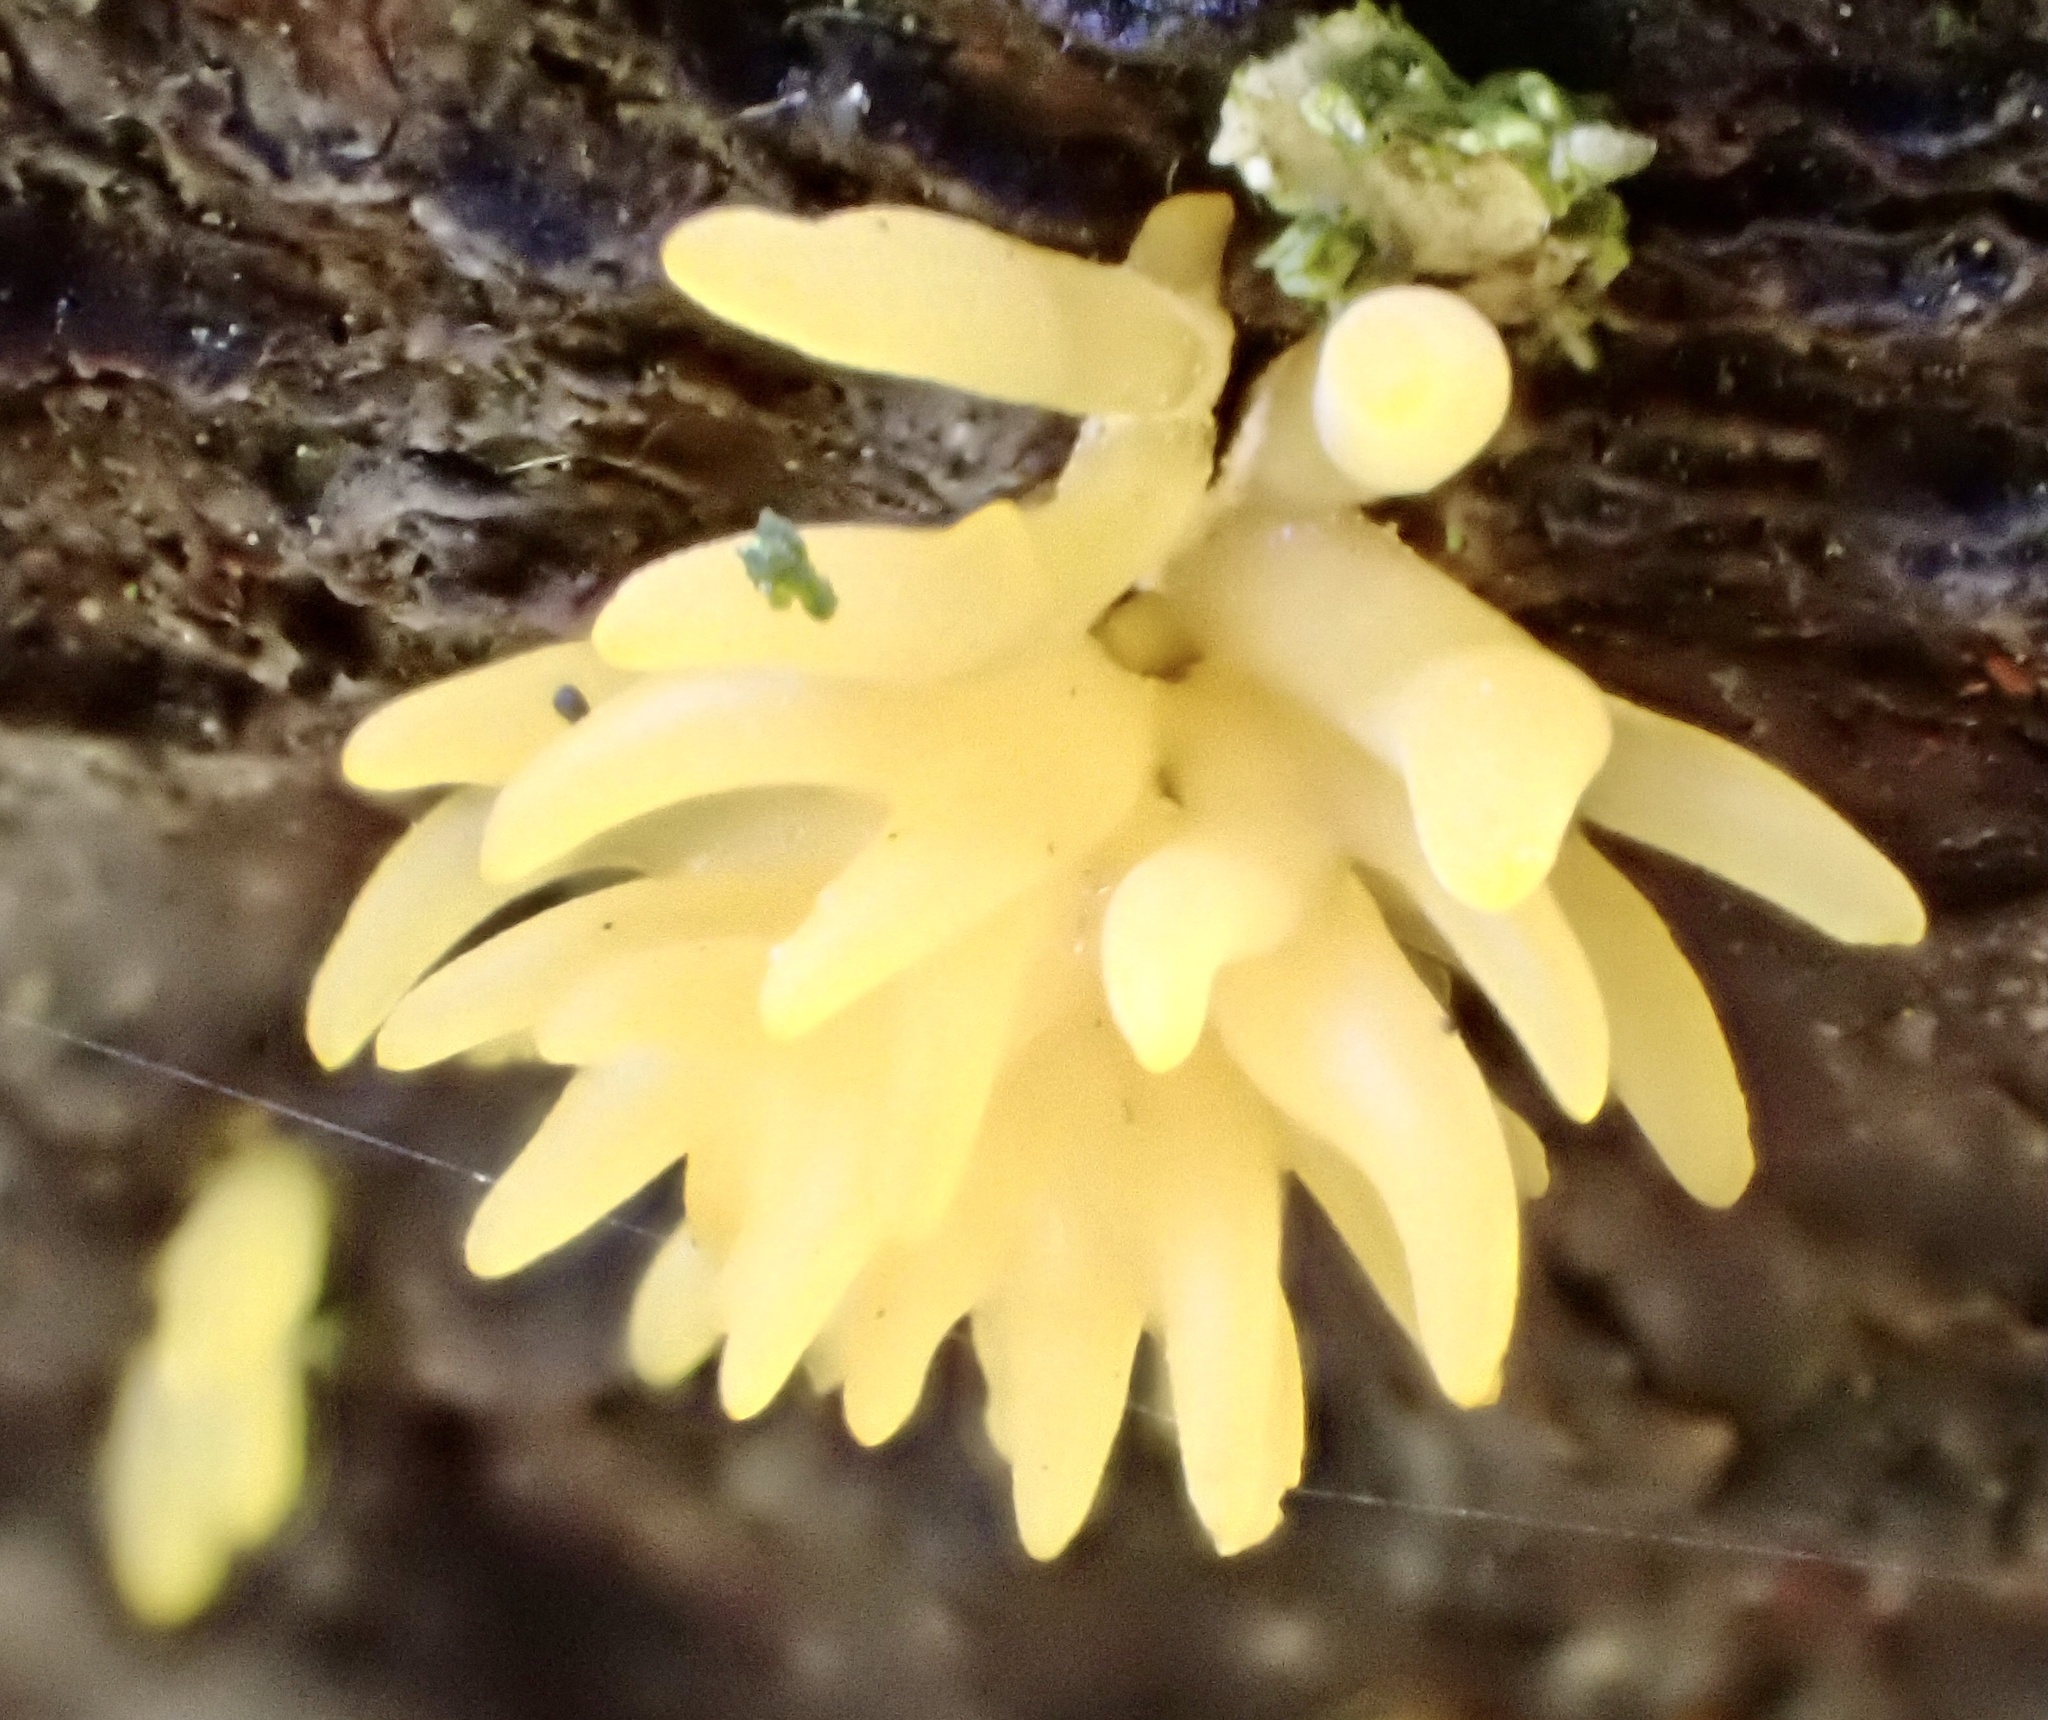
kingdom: Fungi
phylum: Basidiomycota
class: Dacrymycetes
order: Dacrymycetales
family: Dacrymycetaceae
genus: Calocera
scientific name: Calocera cornea
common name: Small stagshorn
